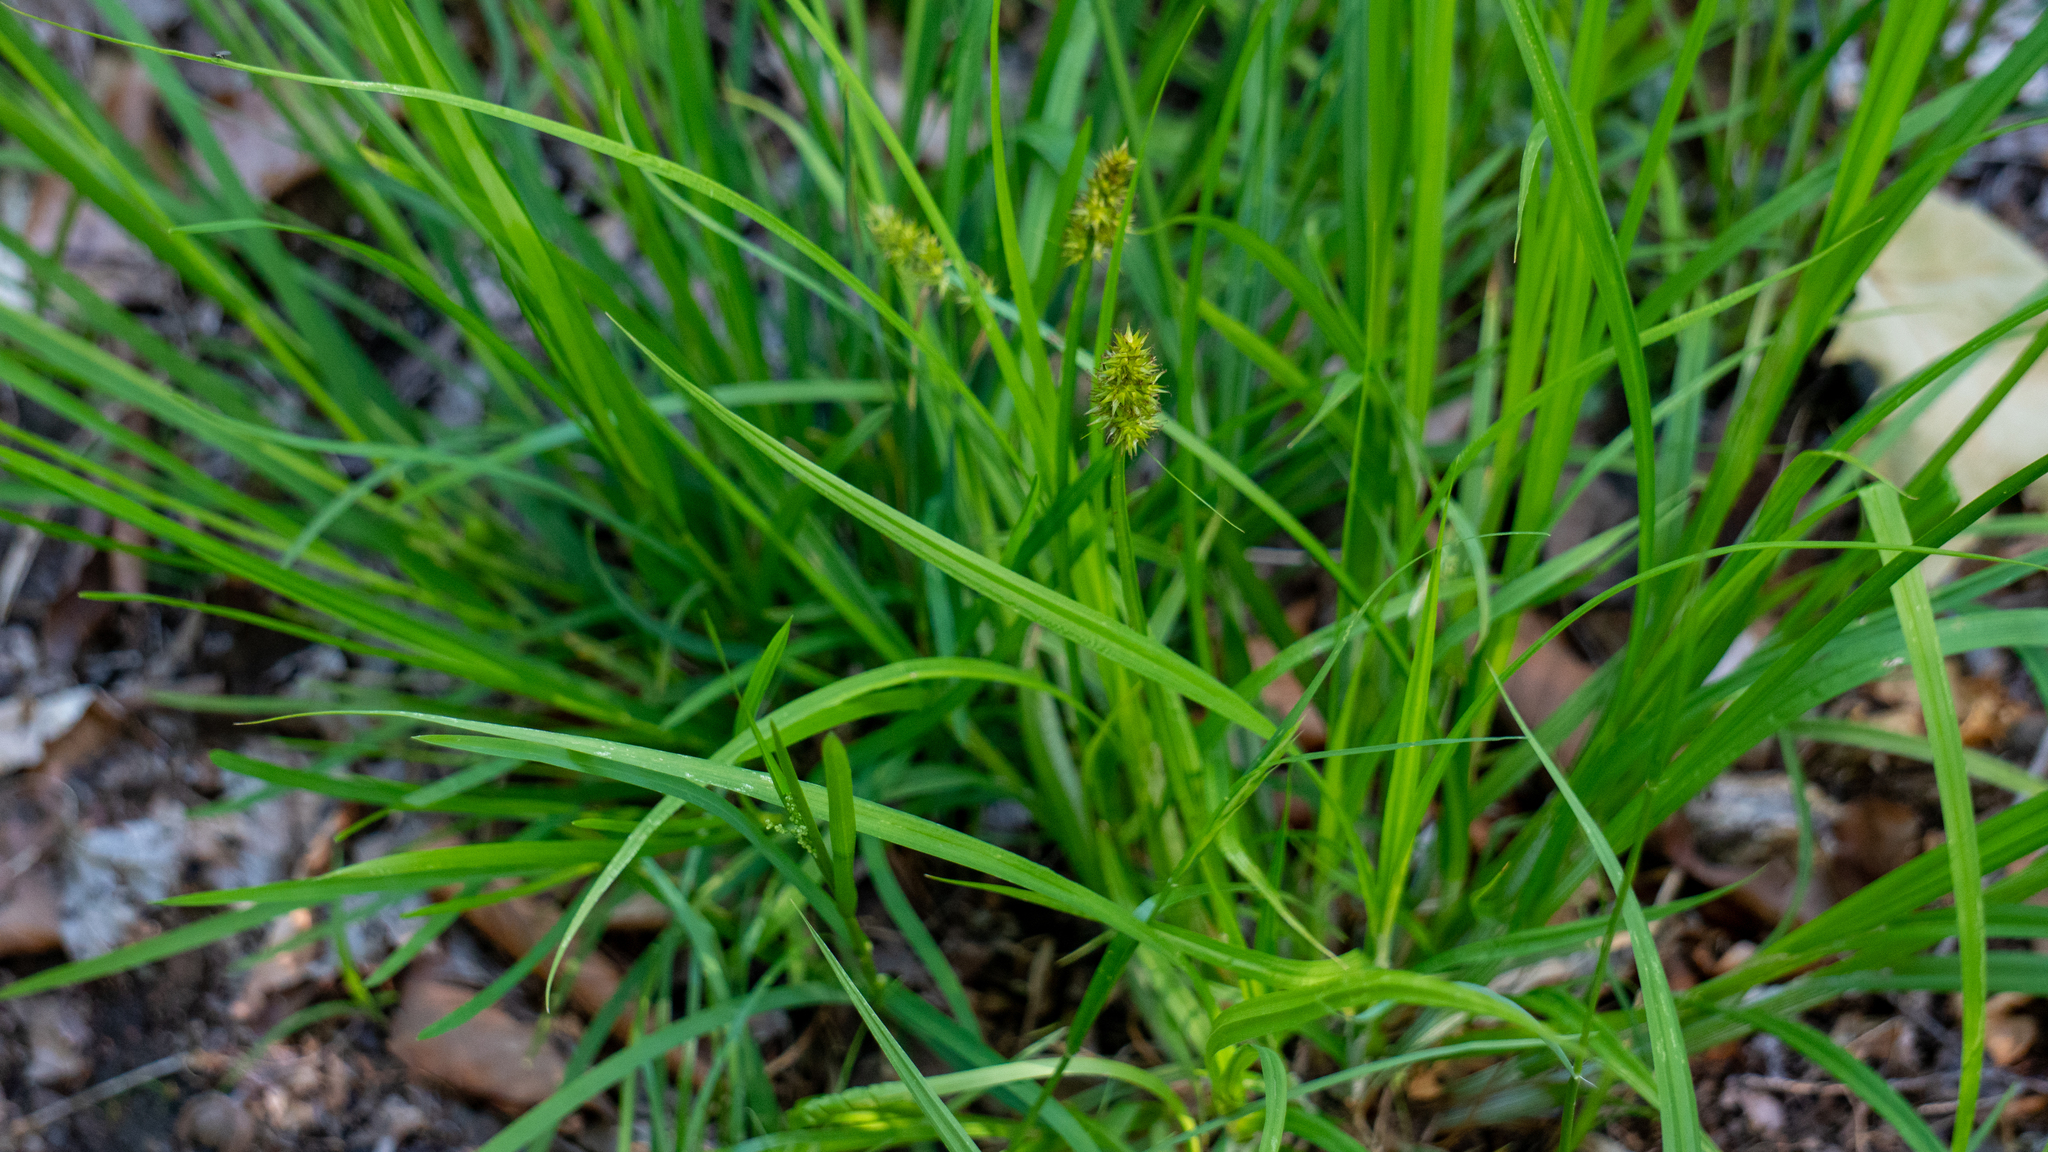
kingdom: Plantae
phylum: Tracheophyta
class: Liliopsida
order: Poales
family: Cyperaceae
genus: Carex
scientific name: Carex stipata
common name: Awl-fruited sedge
